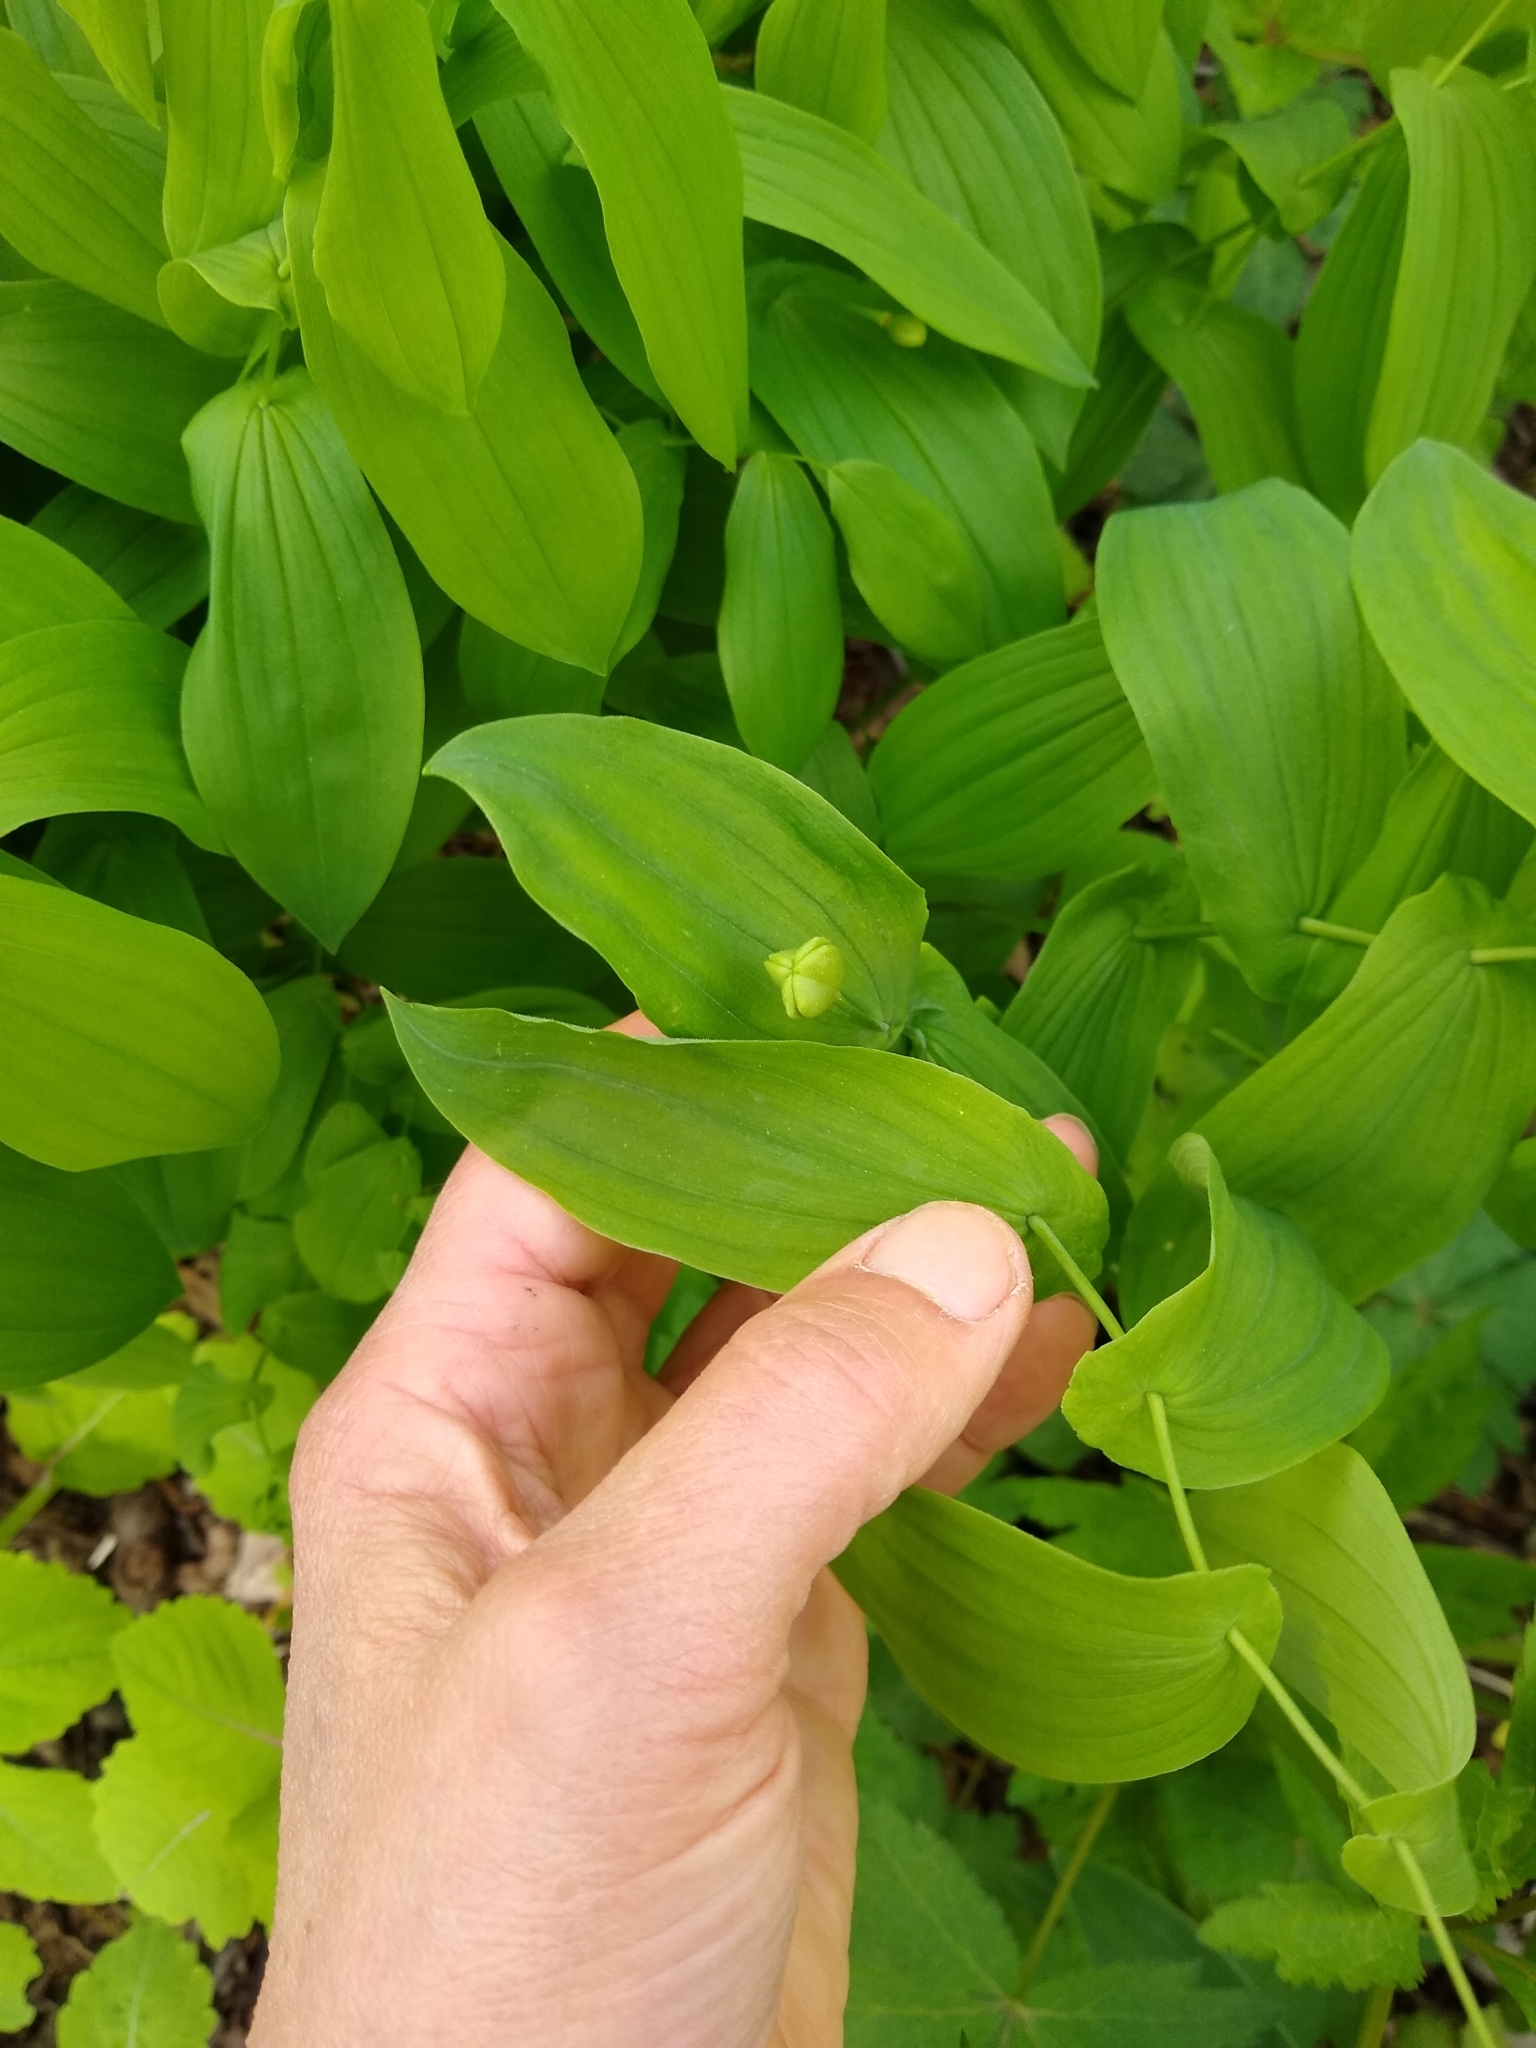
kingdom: Plantae
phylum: Tracheophyta
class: Liliopsida
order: Liliales
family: Colchicaceae
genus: Uvularia
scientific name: Uvularia grandiflora
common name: Bellwort
